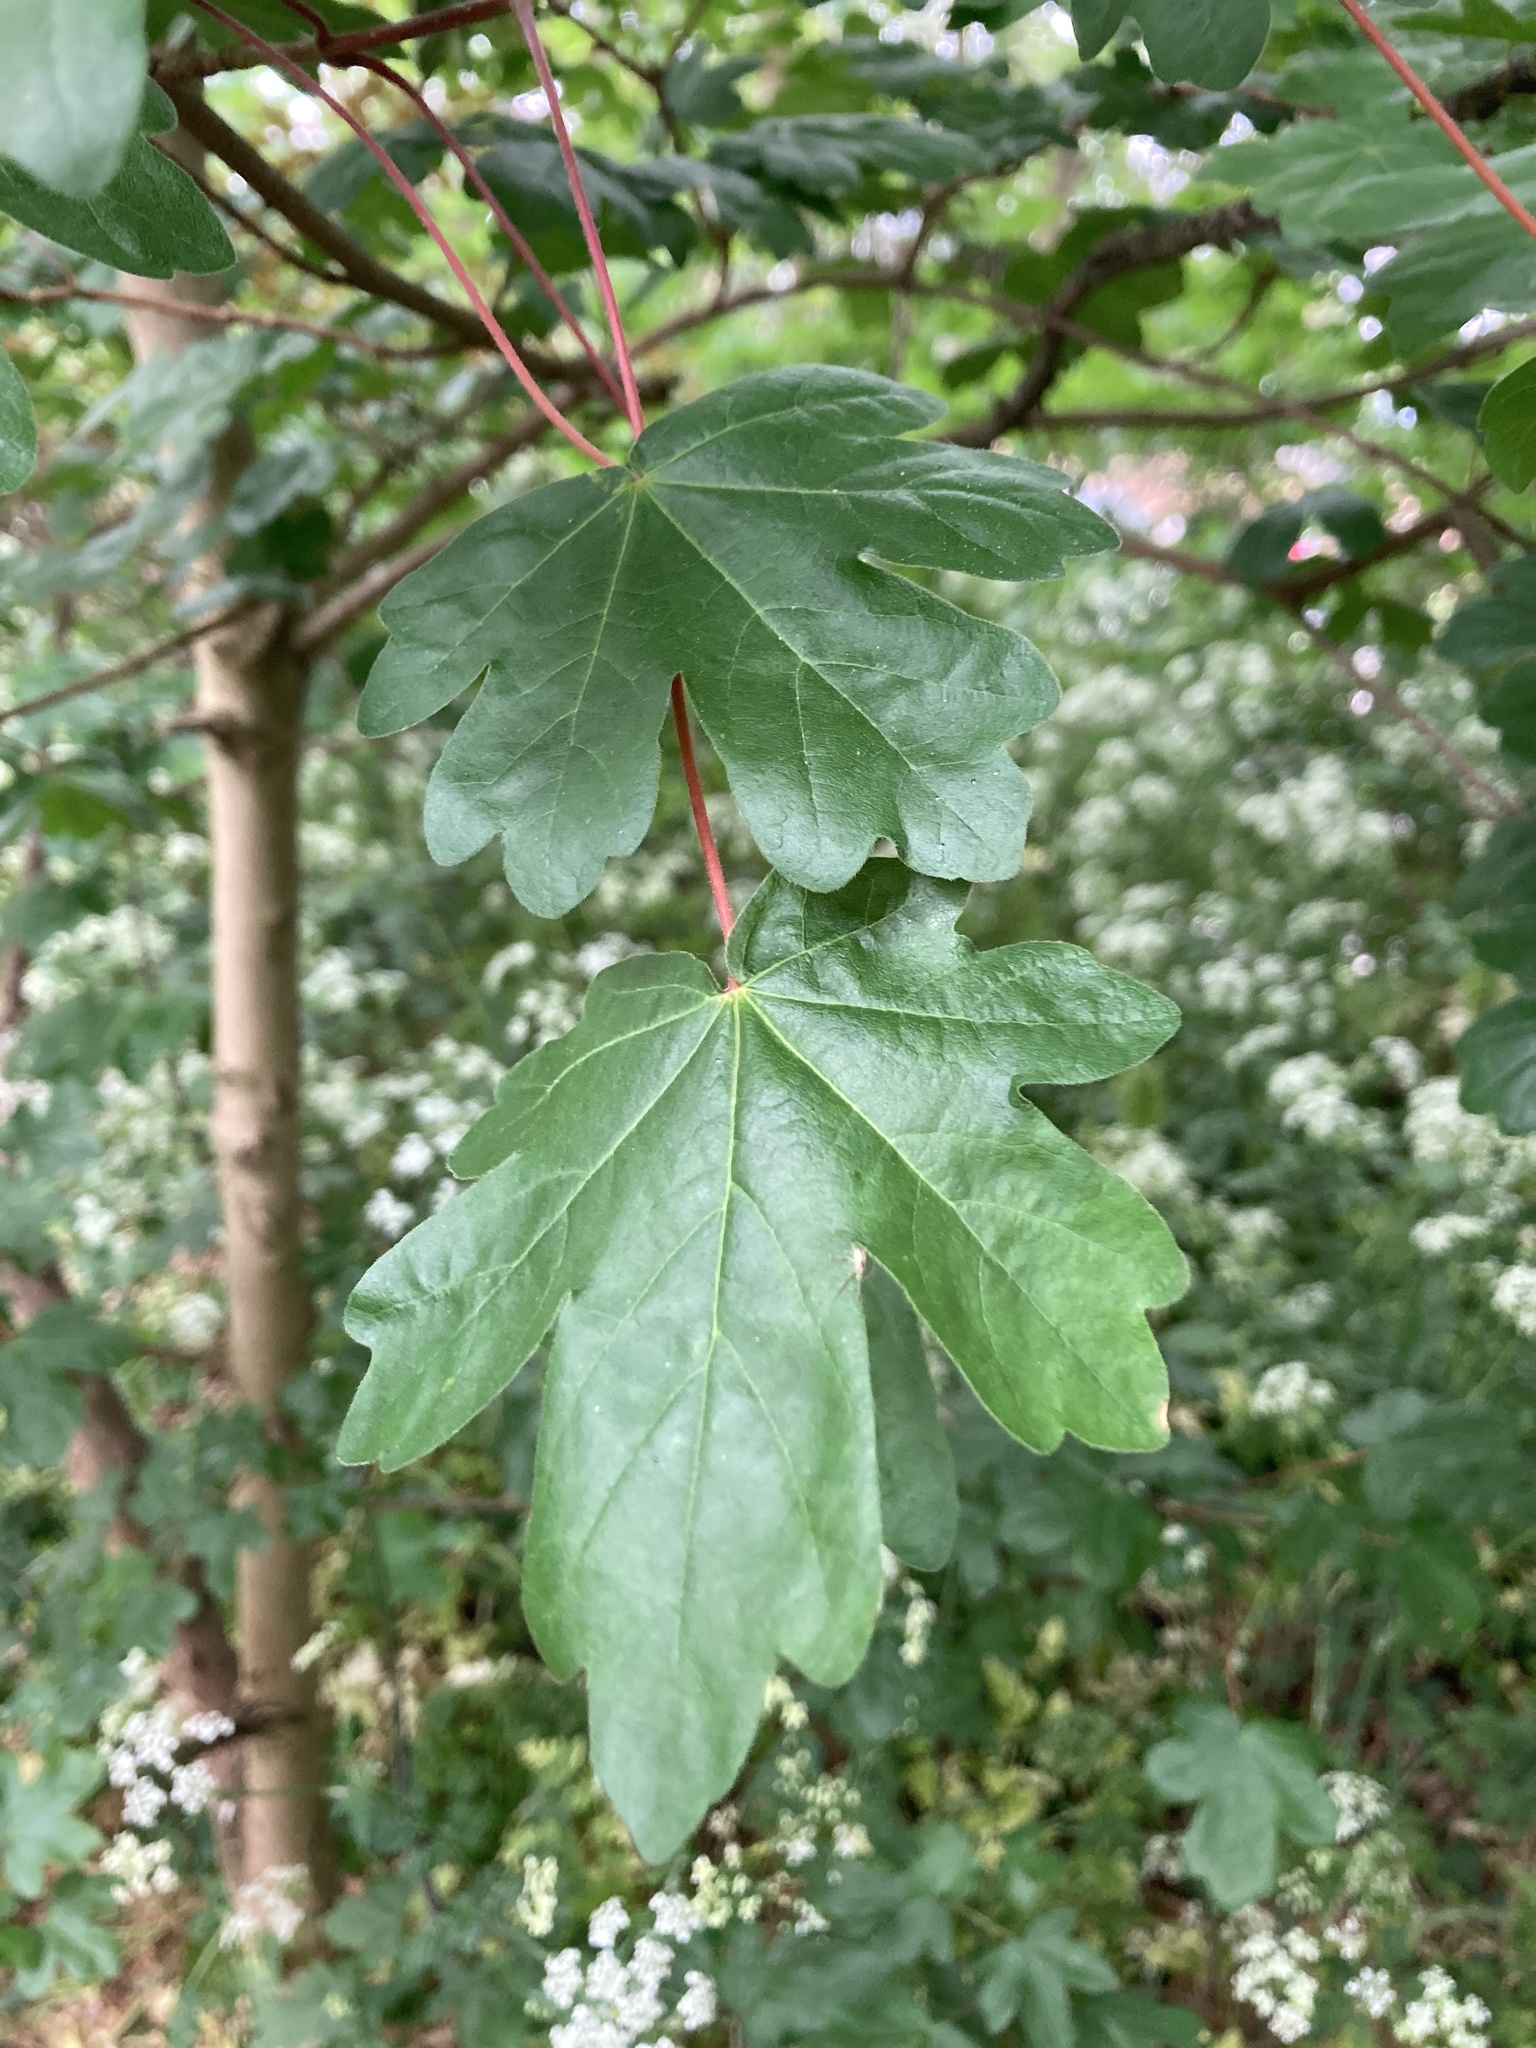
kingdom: Plantae
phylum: Tracheophyta
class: Magnoliopsida
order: Sapindales
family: Sapindaceae
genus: Acer
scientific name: Acer campestre
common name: Field maple
